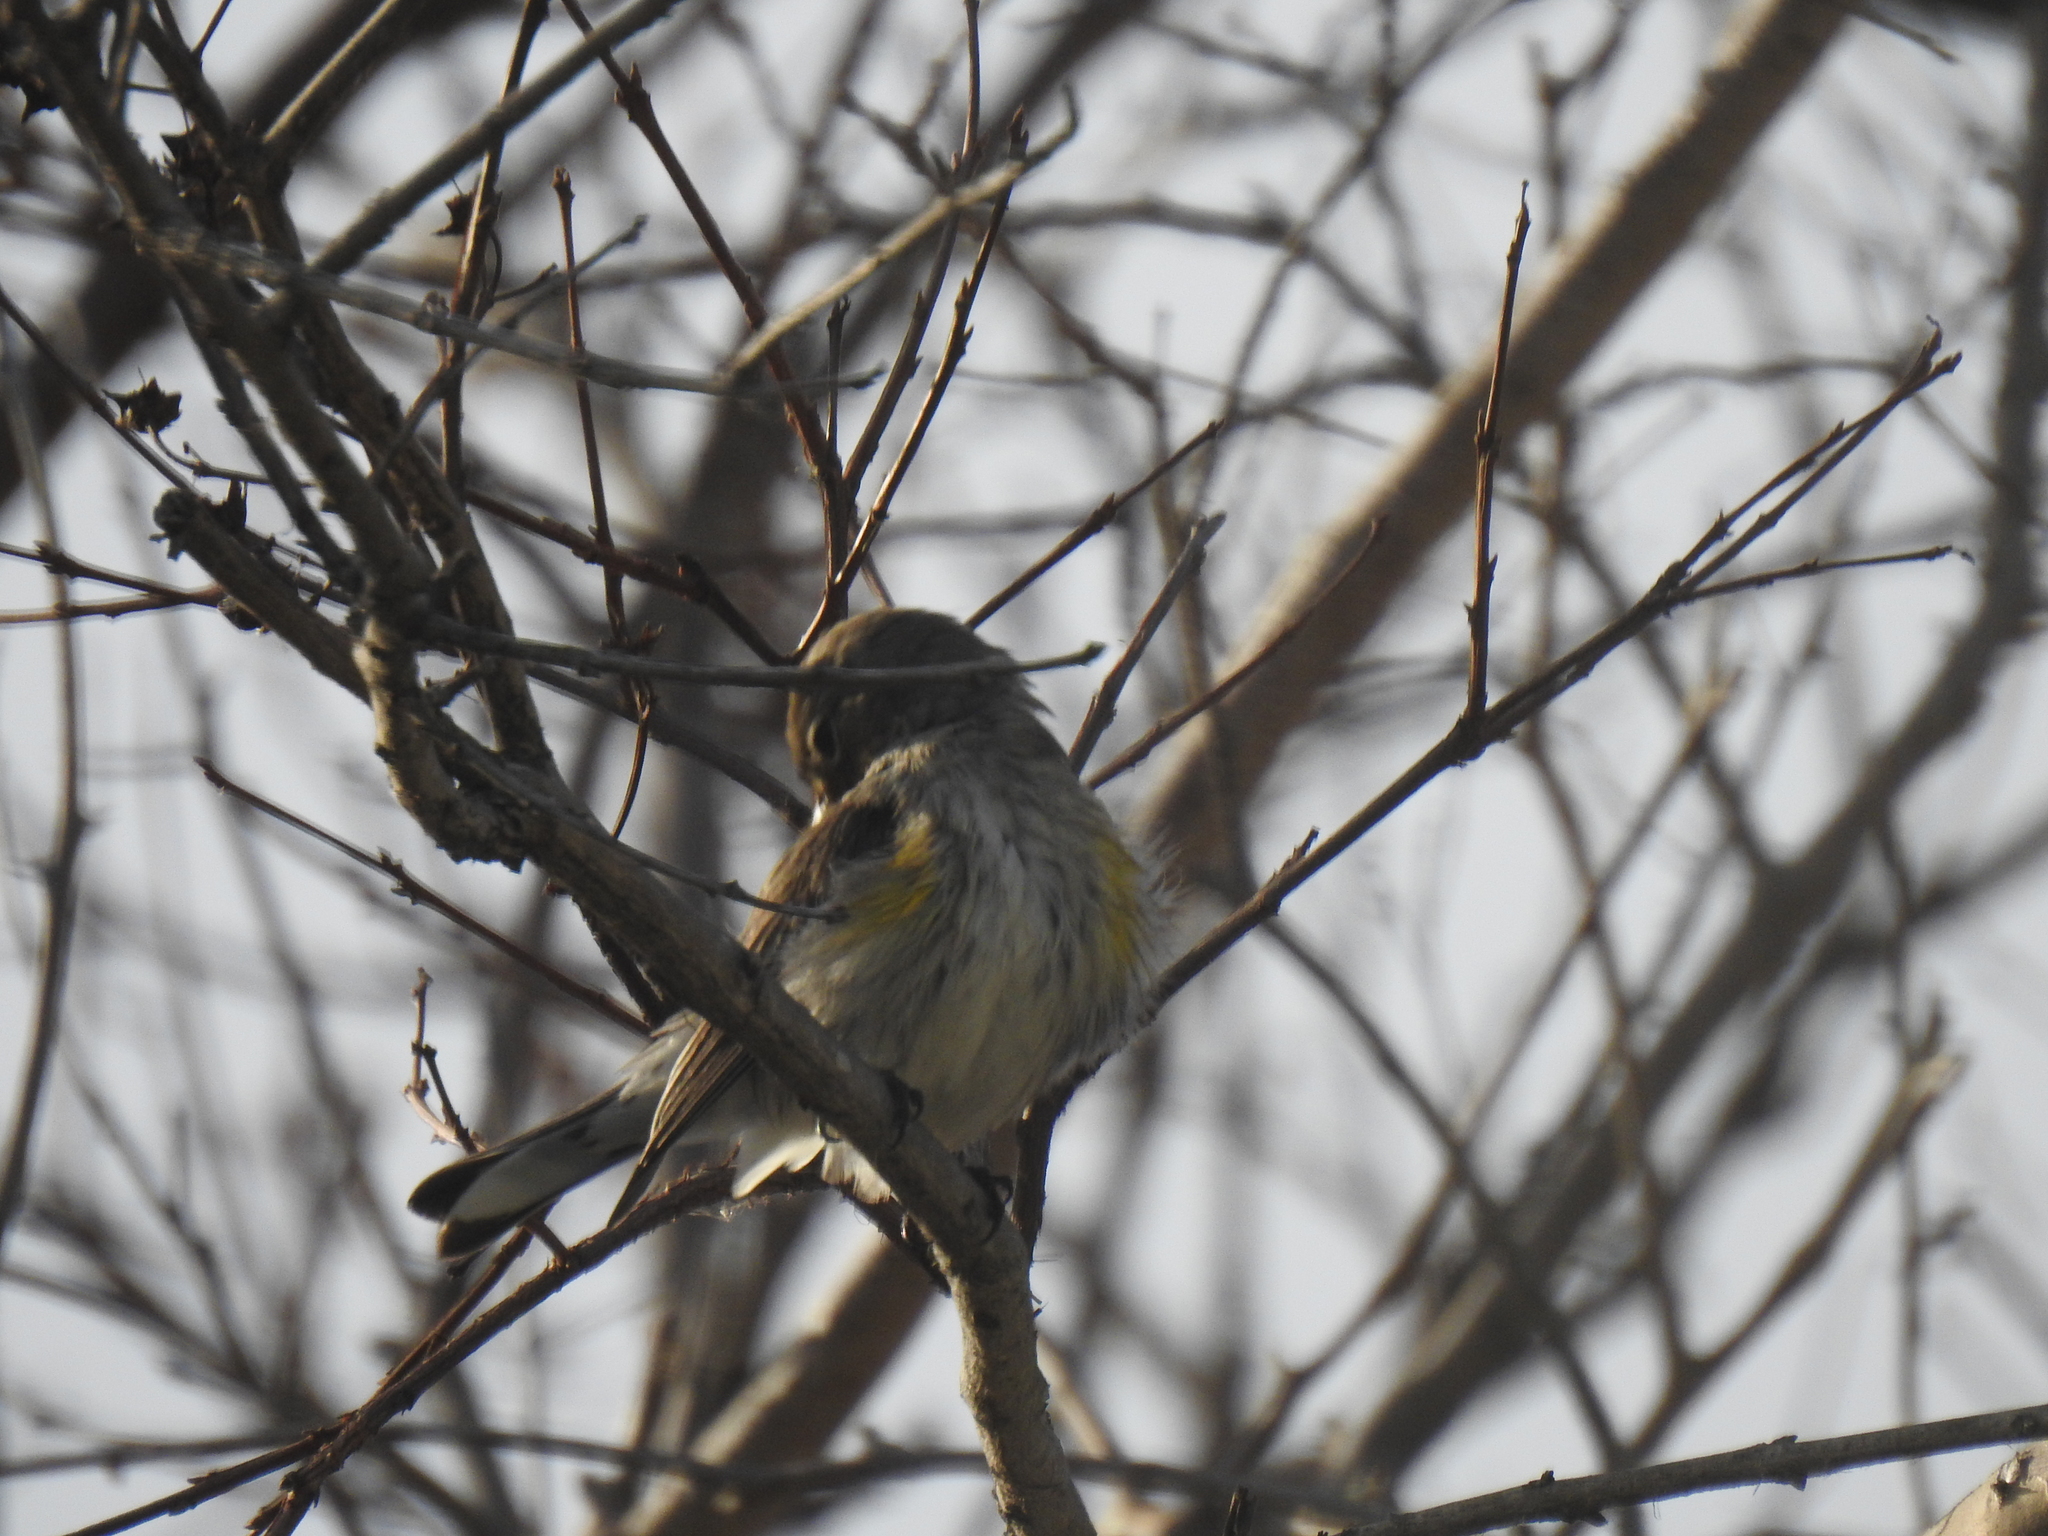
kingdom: Animalia
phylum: Chordata
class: Aves
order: Passeriformes
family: Parulidae
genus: Setophaga
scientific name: Setophaga coronata
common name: Myrtle warbler
